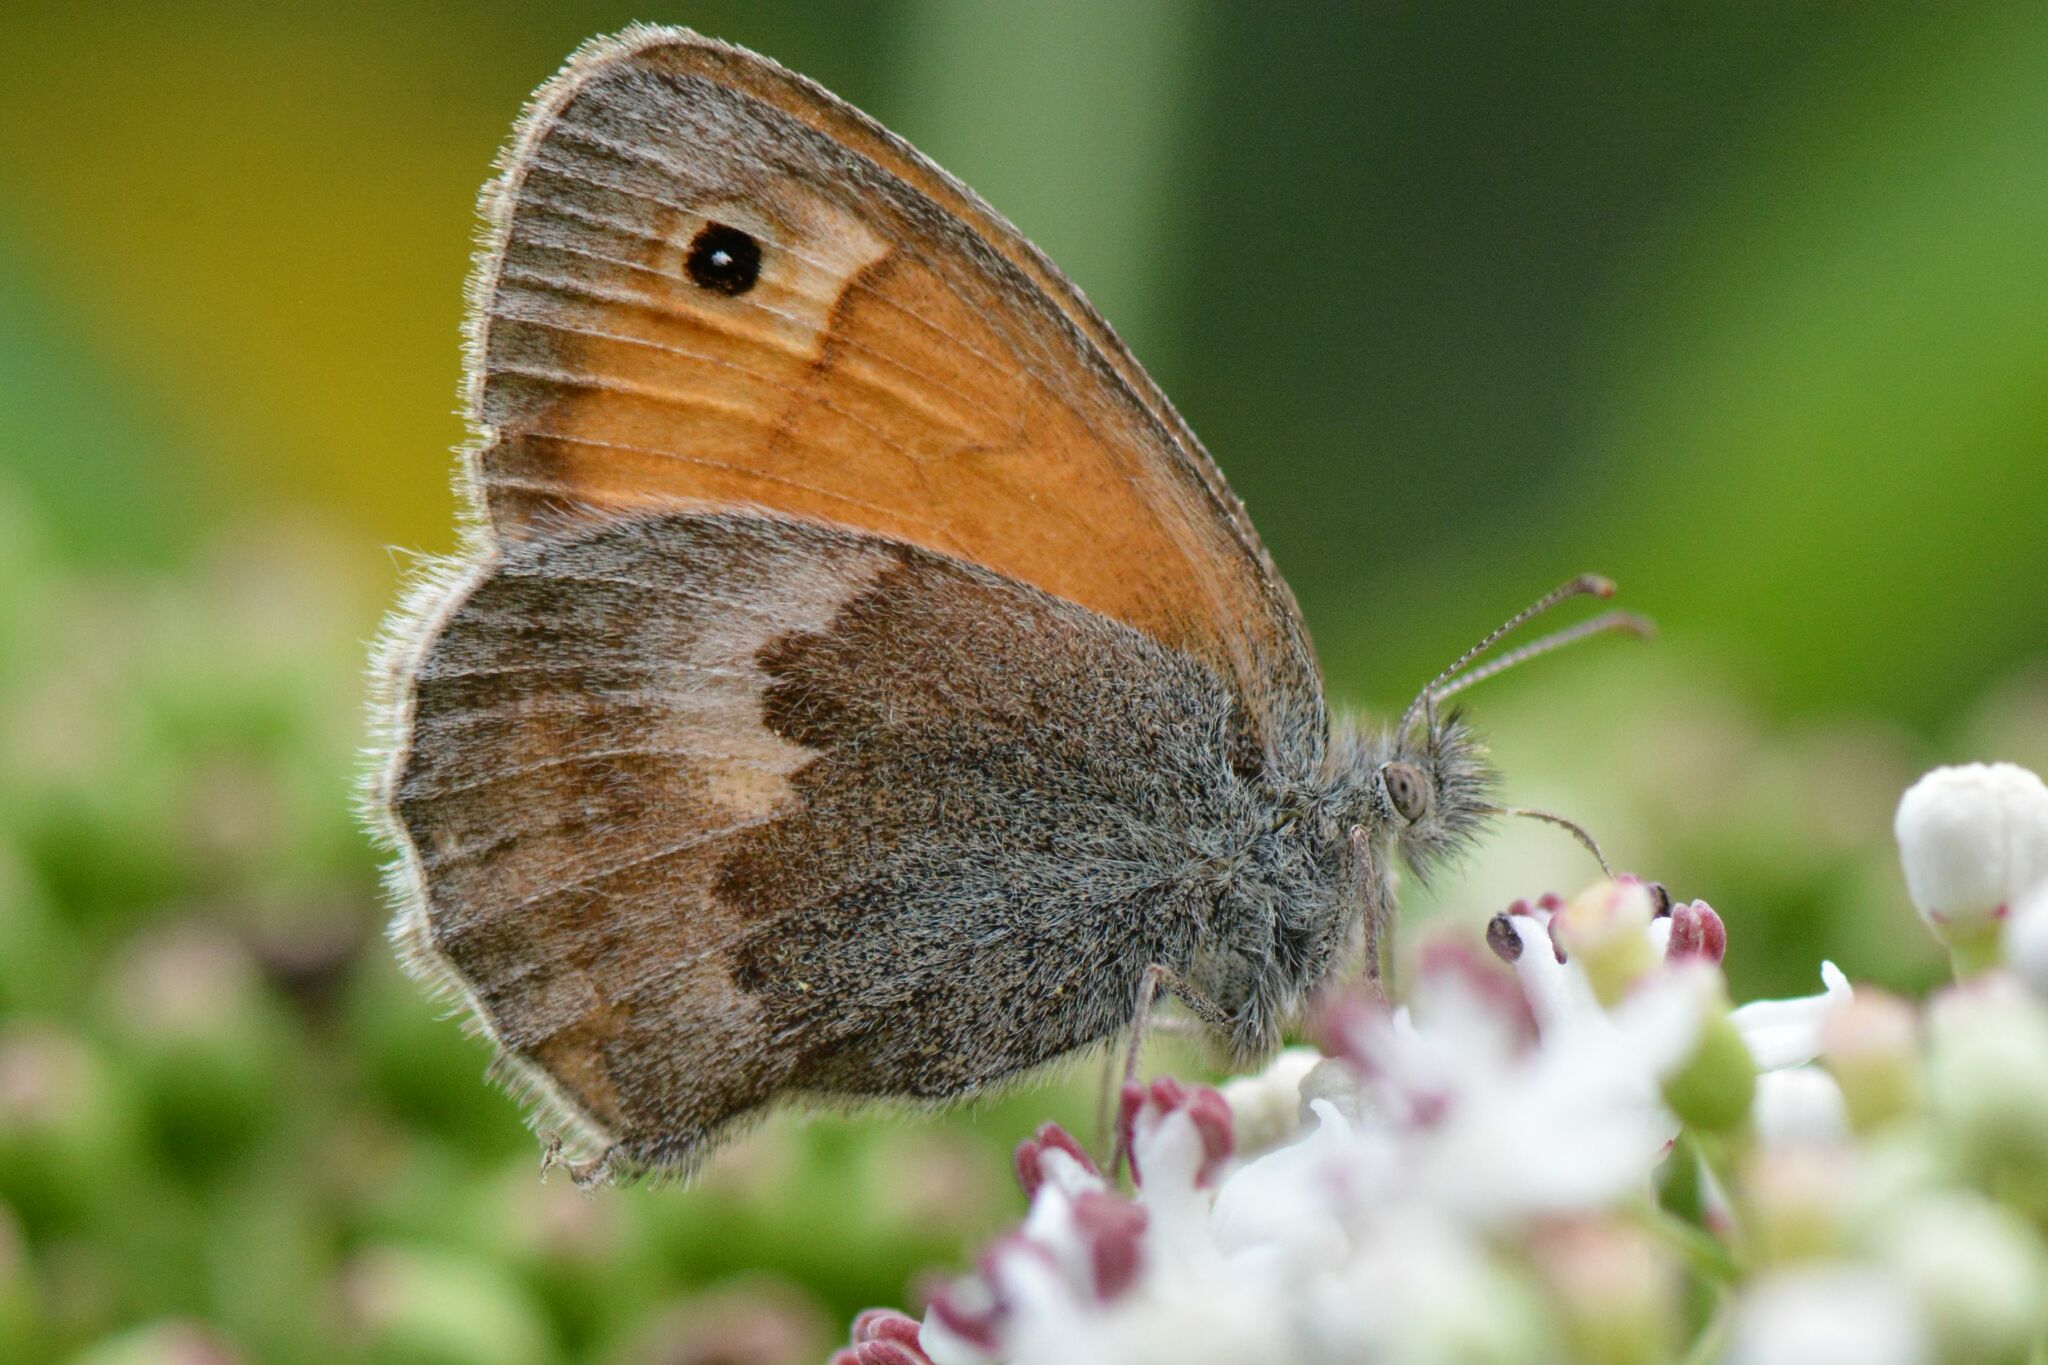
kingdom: Animalia
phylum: Arthropoda
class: Insecta
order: Lepidoptera
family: Nymphalidae
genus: Coenonympha
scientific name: Coenonympha pamphilus
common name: Small heath
